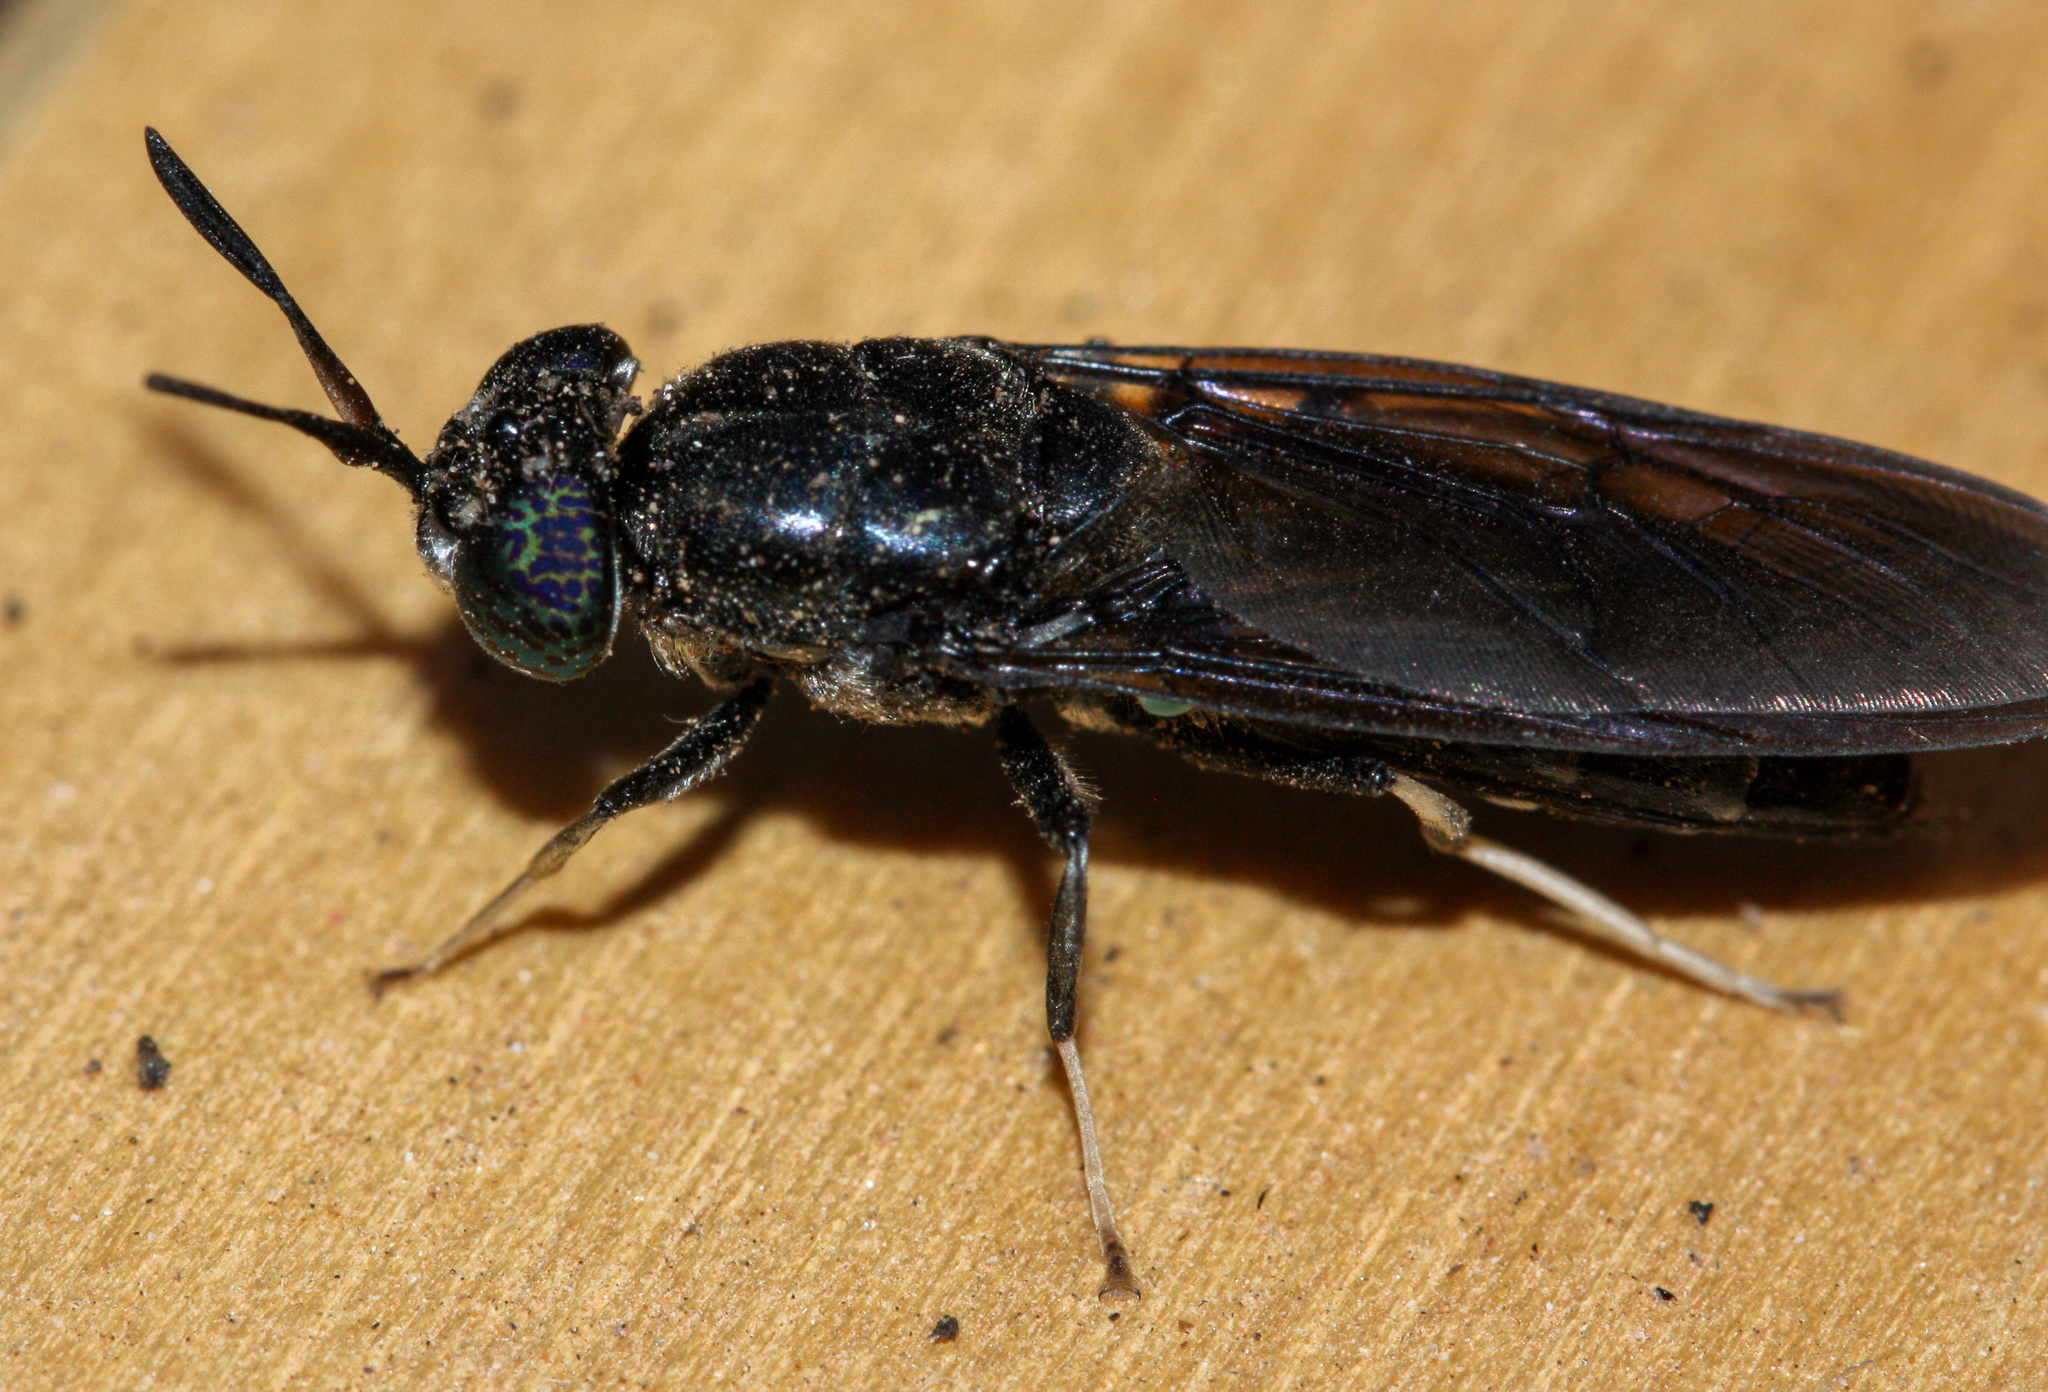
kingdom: Animalia
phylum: Arthropoda
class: Insecta
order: Diptera
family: Stratiomyidae
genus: Hermetia
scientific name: Hermetia illucens
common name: Black soldier fly
